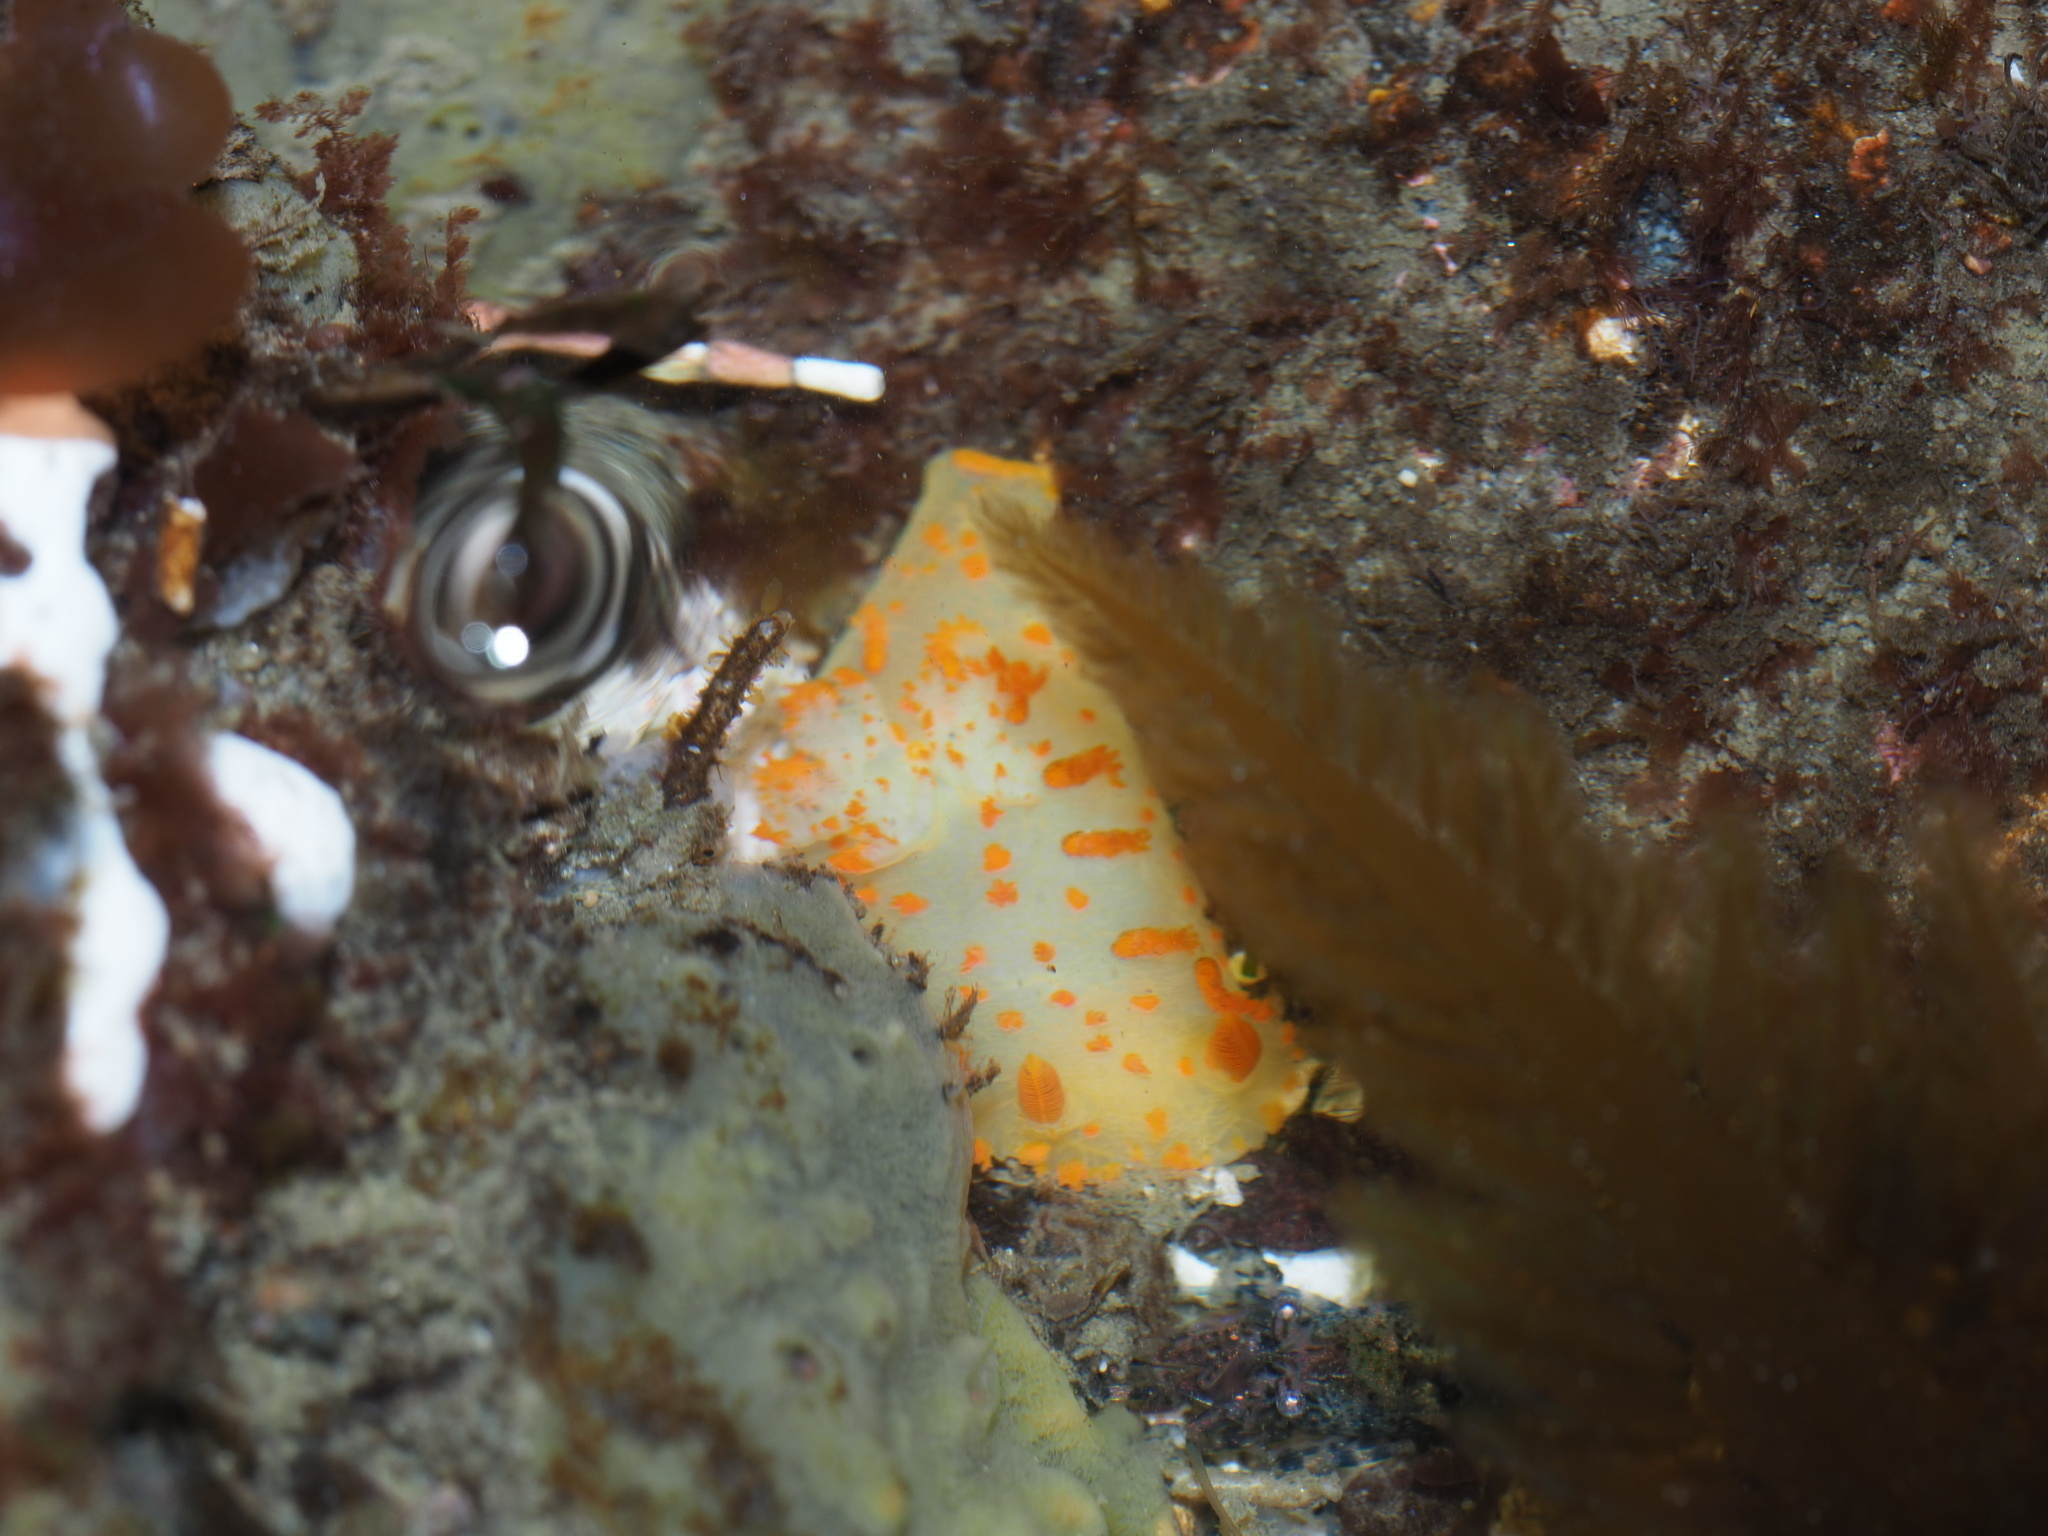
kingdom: Animalia
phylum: Mollusca
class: Gastropoda
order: Nudibranchia
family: Polyceridae
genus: Triopha
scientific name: Triopha modesta
